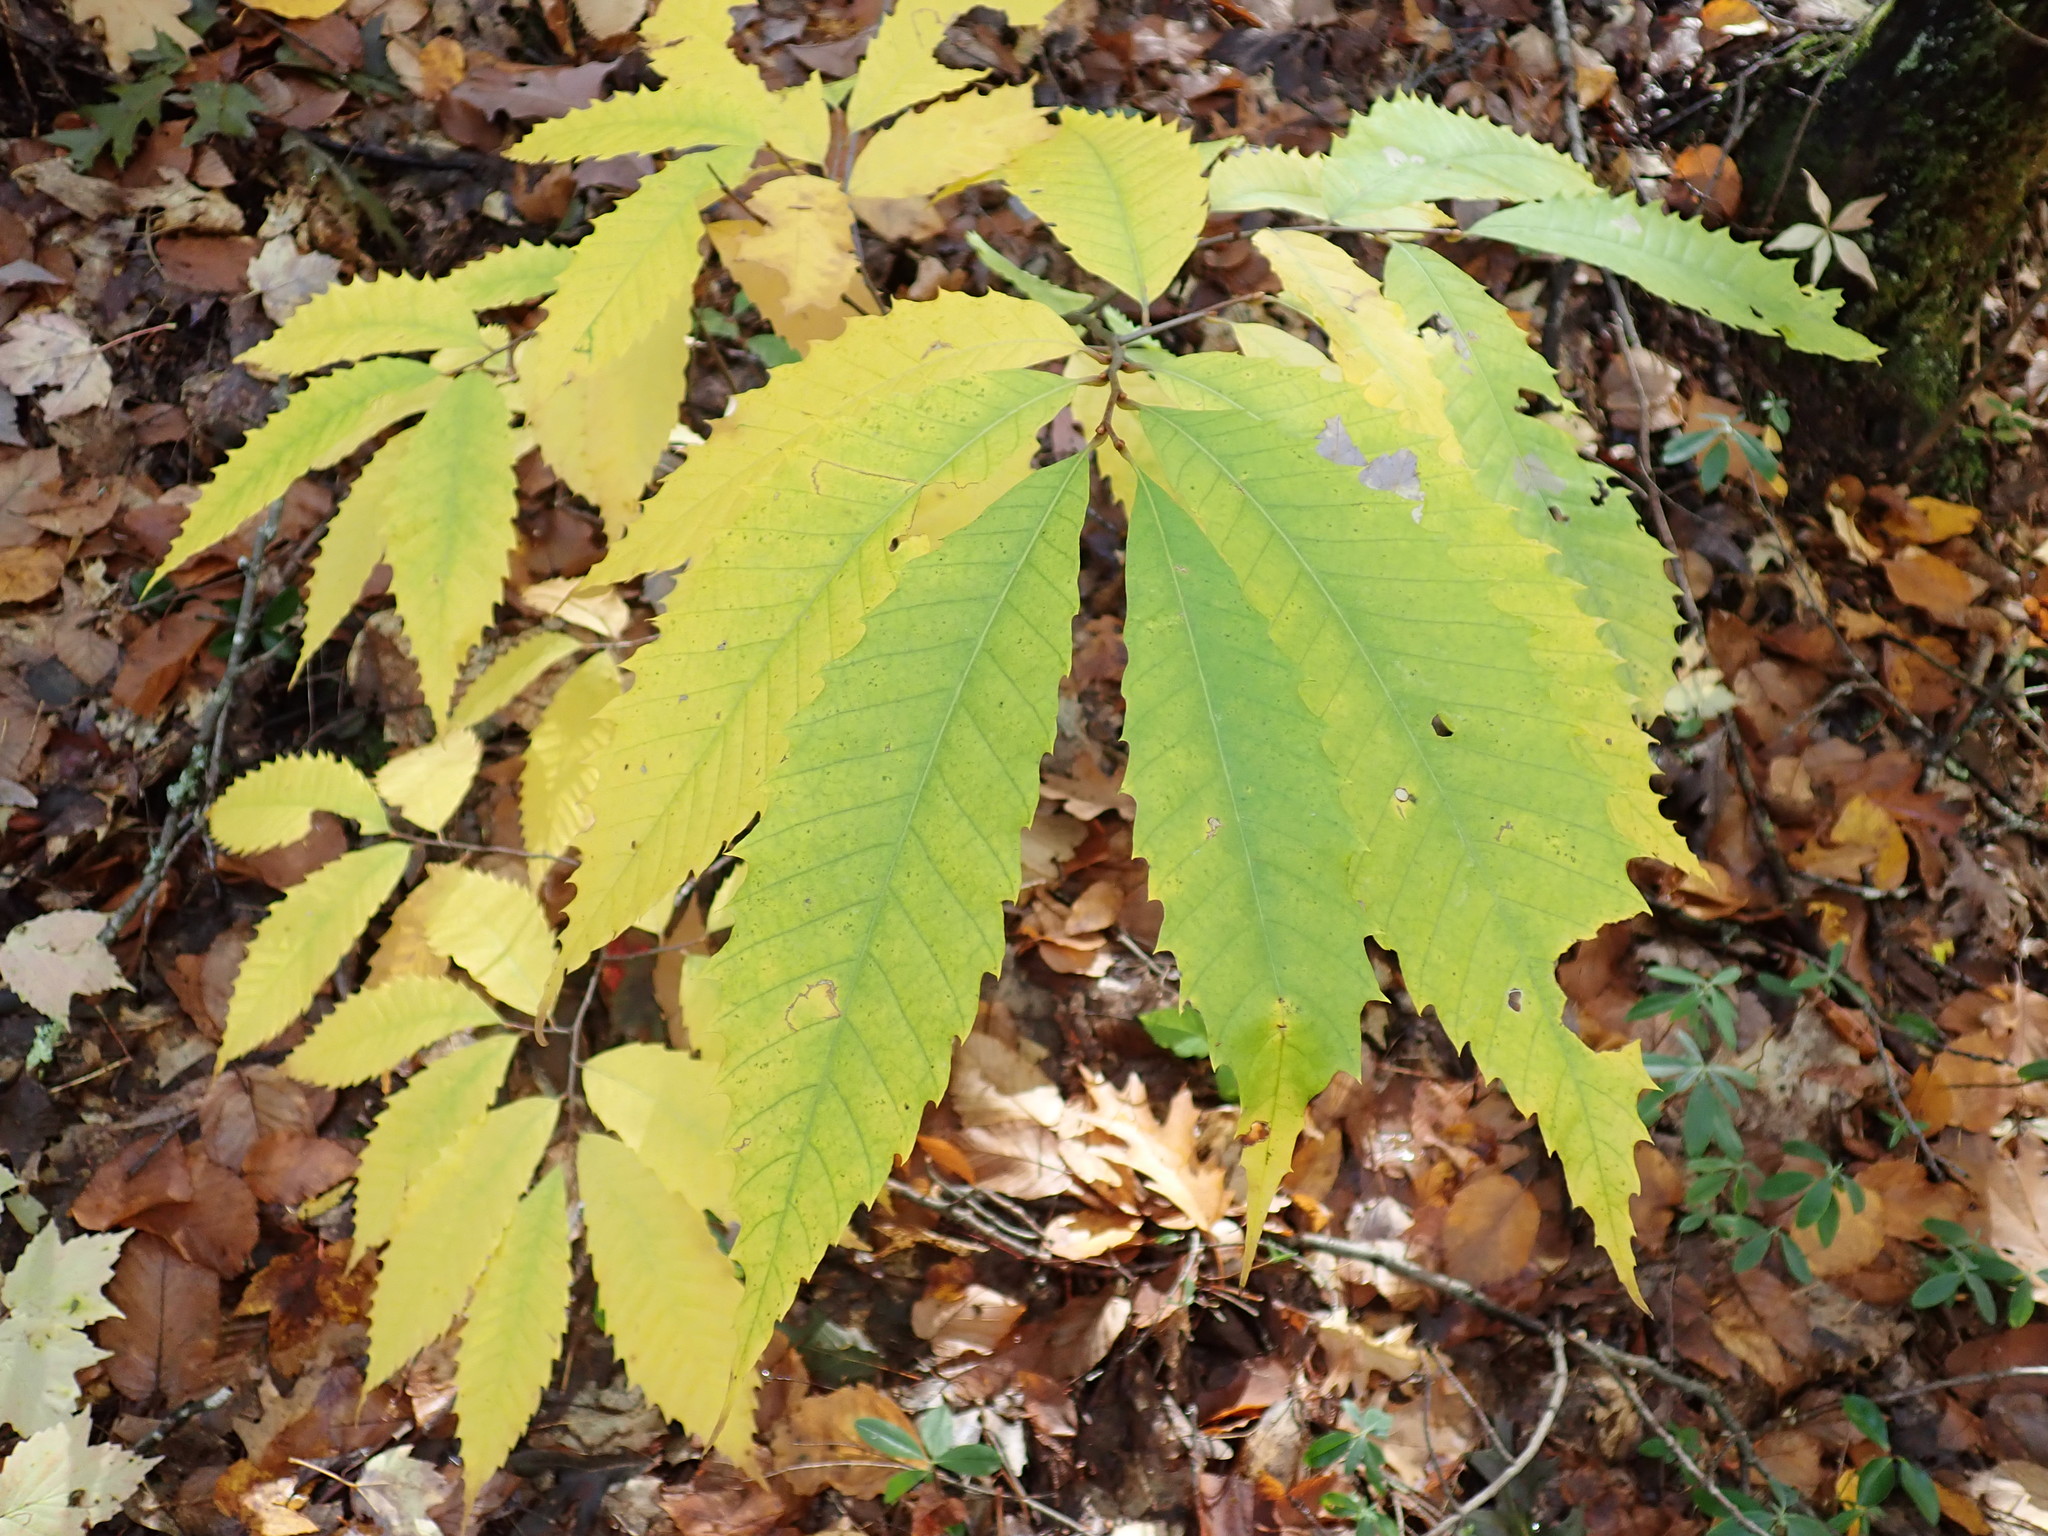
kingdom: Plantae
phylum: Tracheophyta
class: Magnoliopsida
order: Fagales
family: Fagaceae
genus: Castanea
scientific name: Castanea dentata
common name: American chestnut
